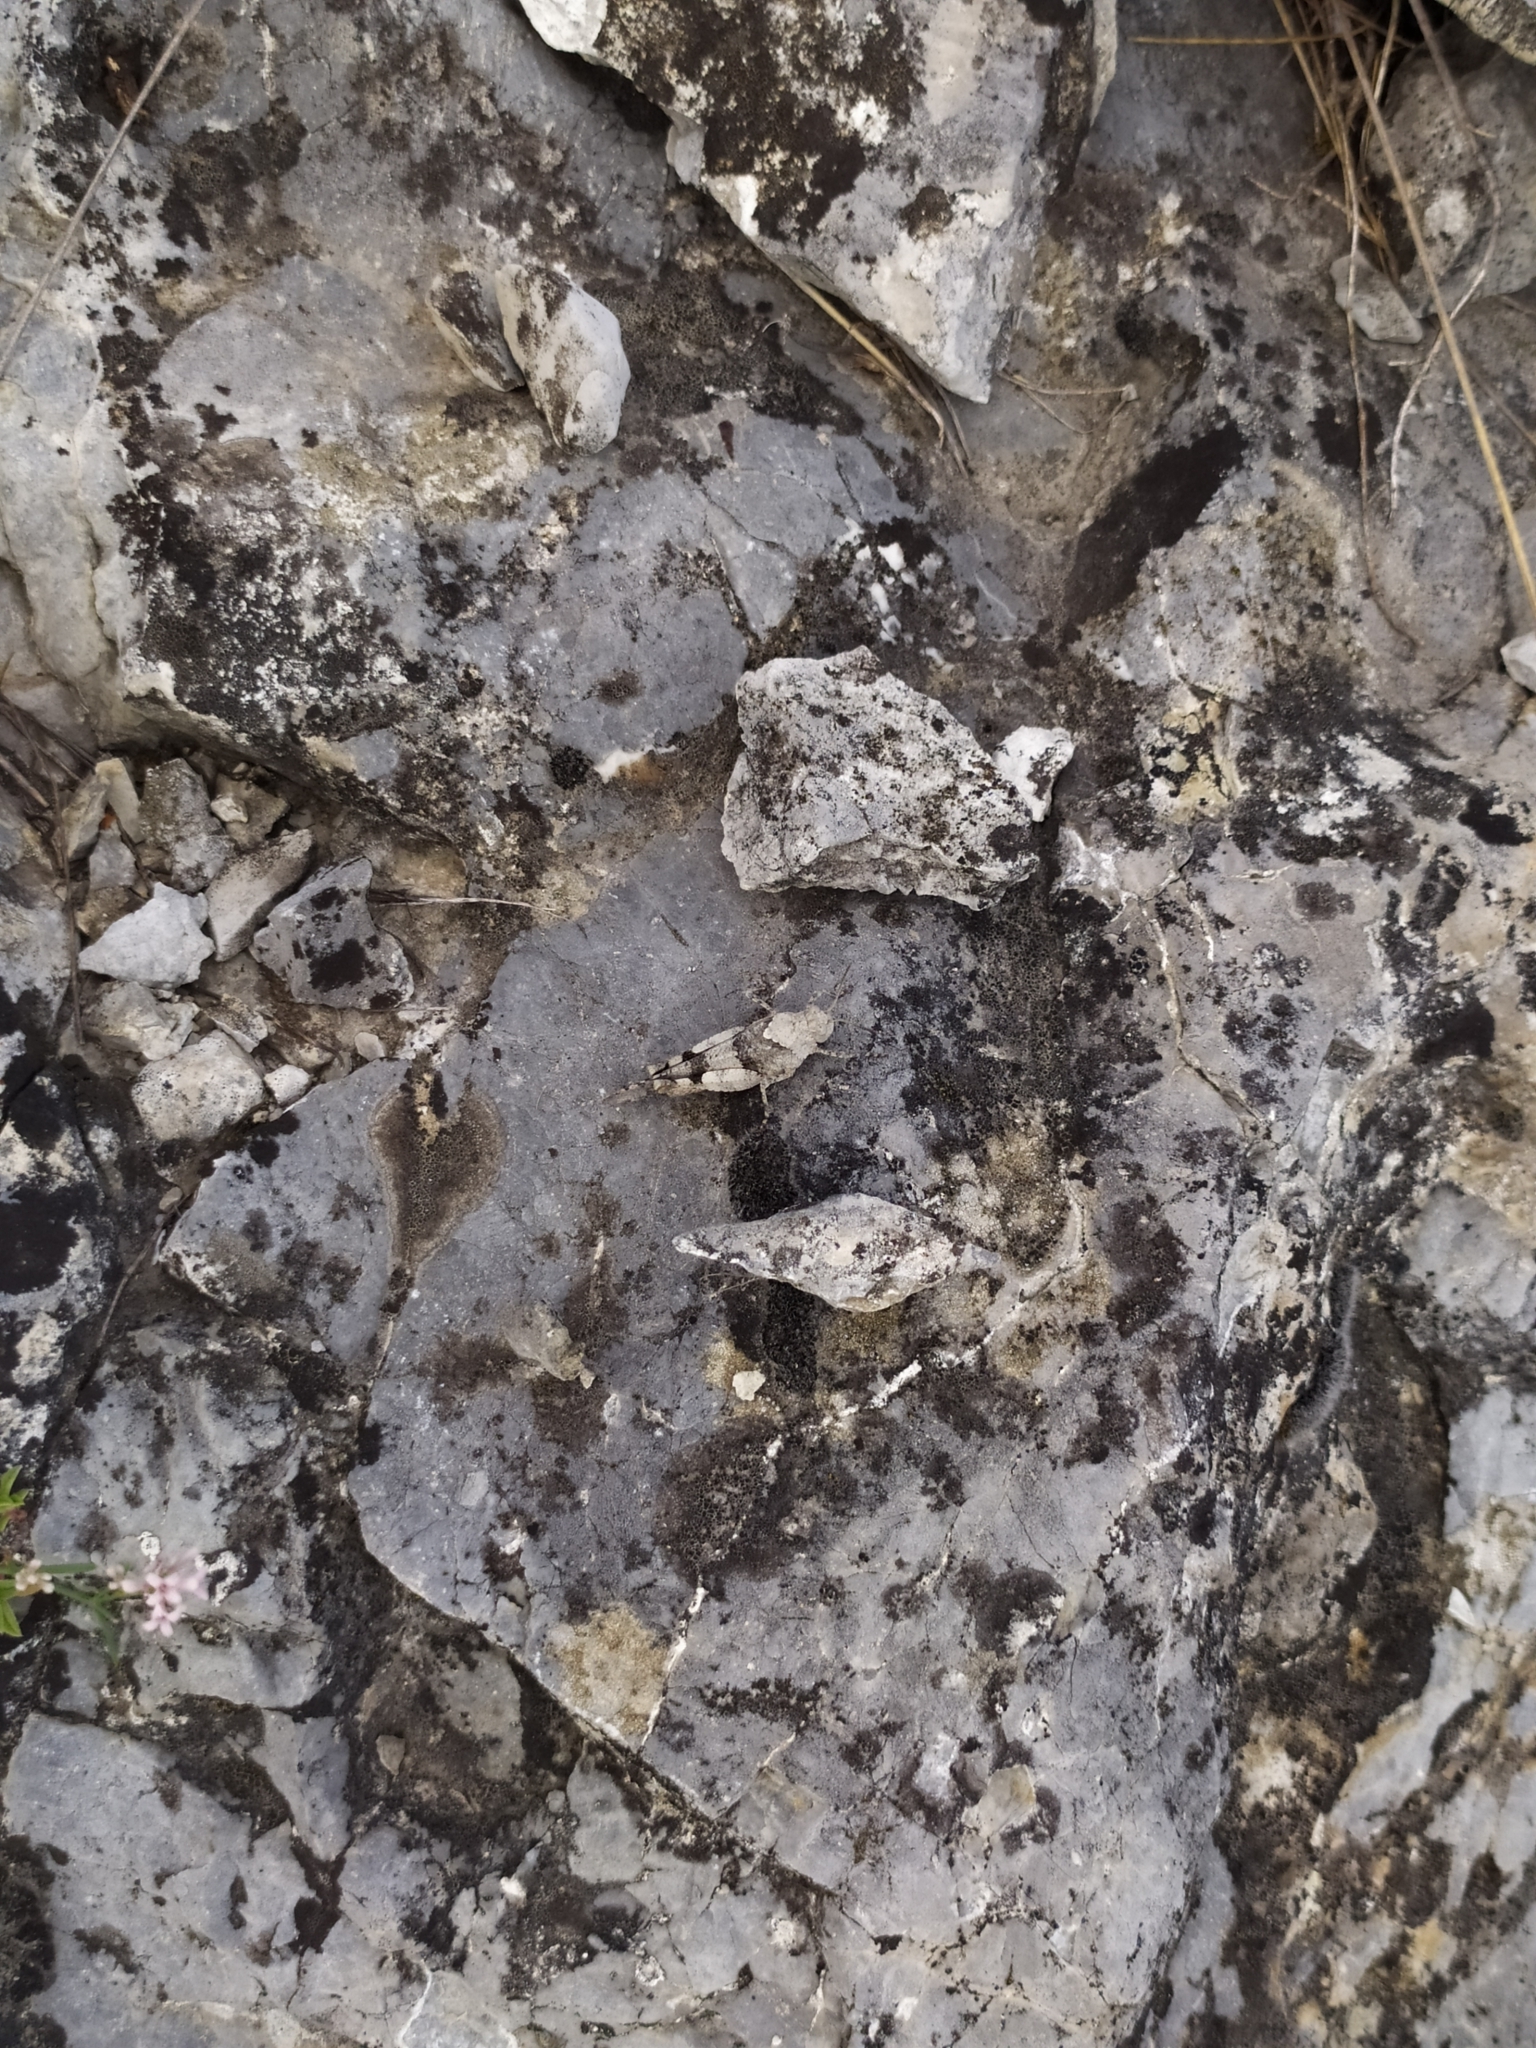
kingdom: Animalia
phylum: Arthropoda
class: Insecta
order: Orthoptera
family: Acrididae
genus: Oedipoda
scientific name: Oedipoda caerulescens
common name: Blue-winged grasshopper
